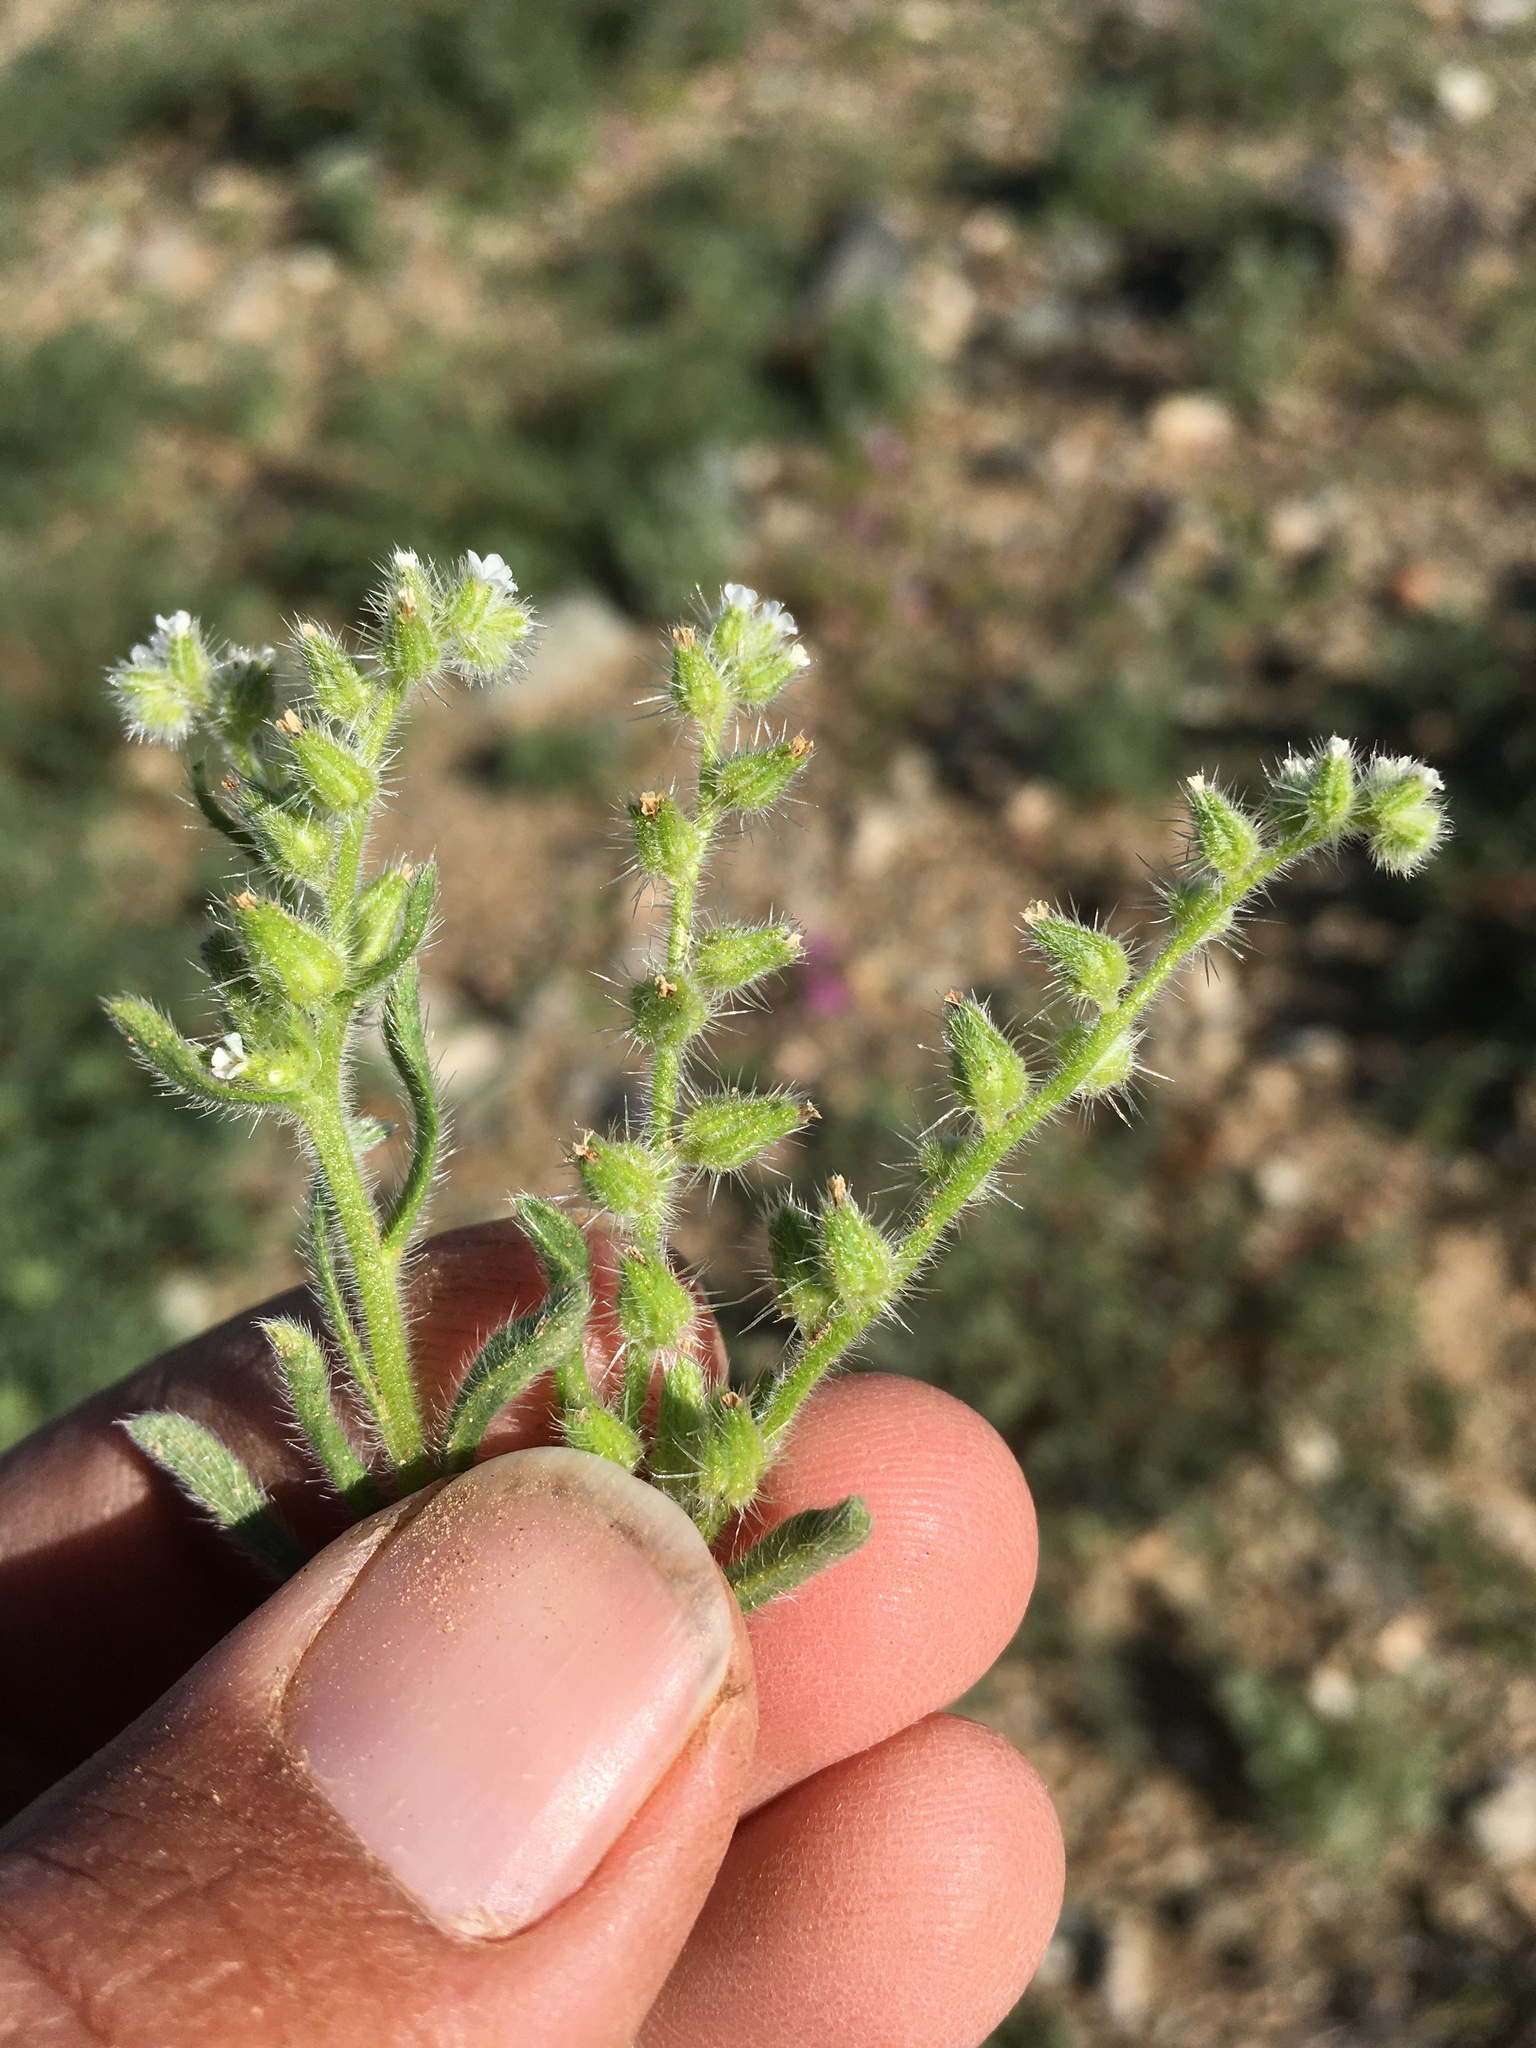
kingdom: Plantae
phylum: Tracheophyta
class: Magnoliopsida
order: Boraginales
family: Boraginaceae
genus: Cryptantha
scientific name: Cryptantha crassisepala
